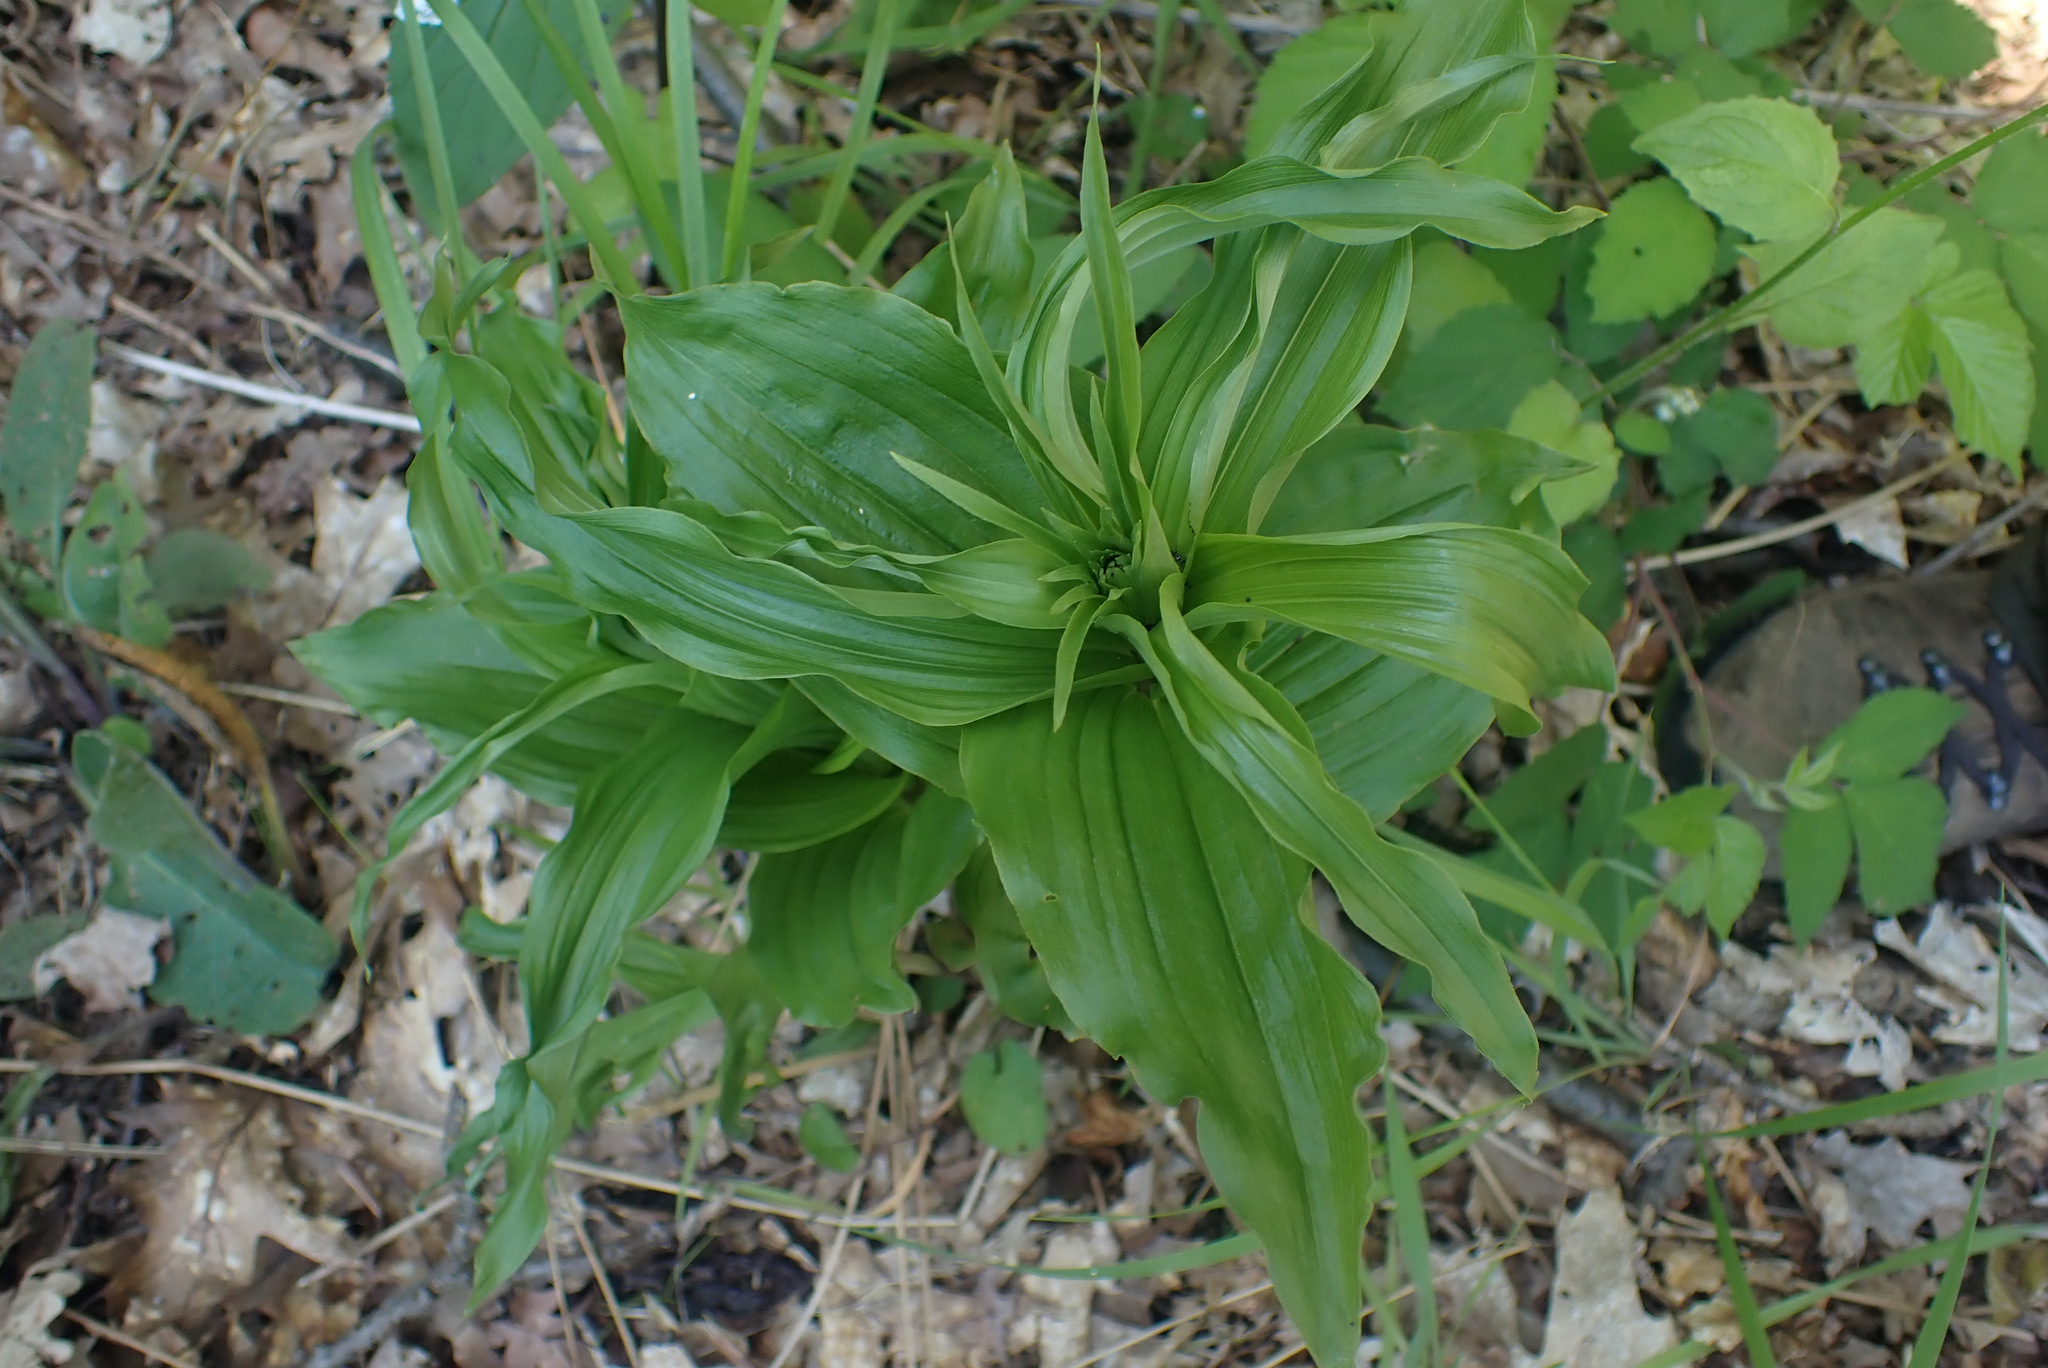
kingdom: Plantae
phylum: Tracheophyta
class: Liliopsida
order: Asparagales
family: Orchidaceae
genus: Epipactis
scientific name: Epipactis helleborine
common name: Broad-leaved helleborine
